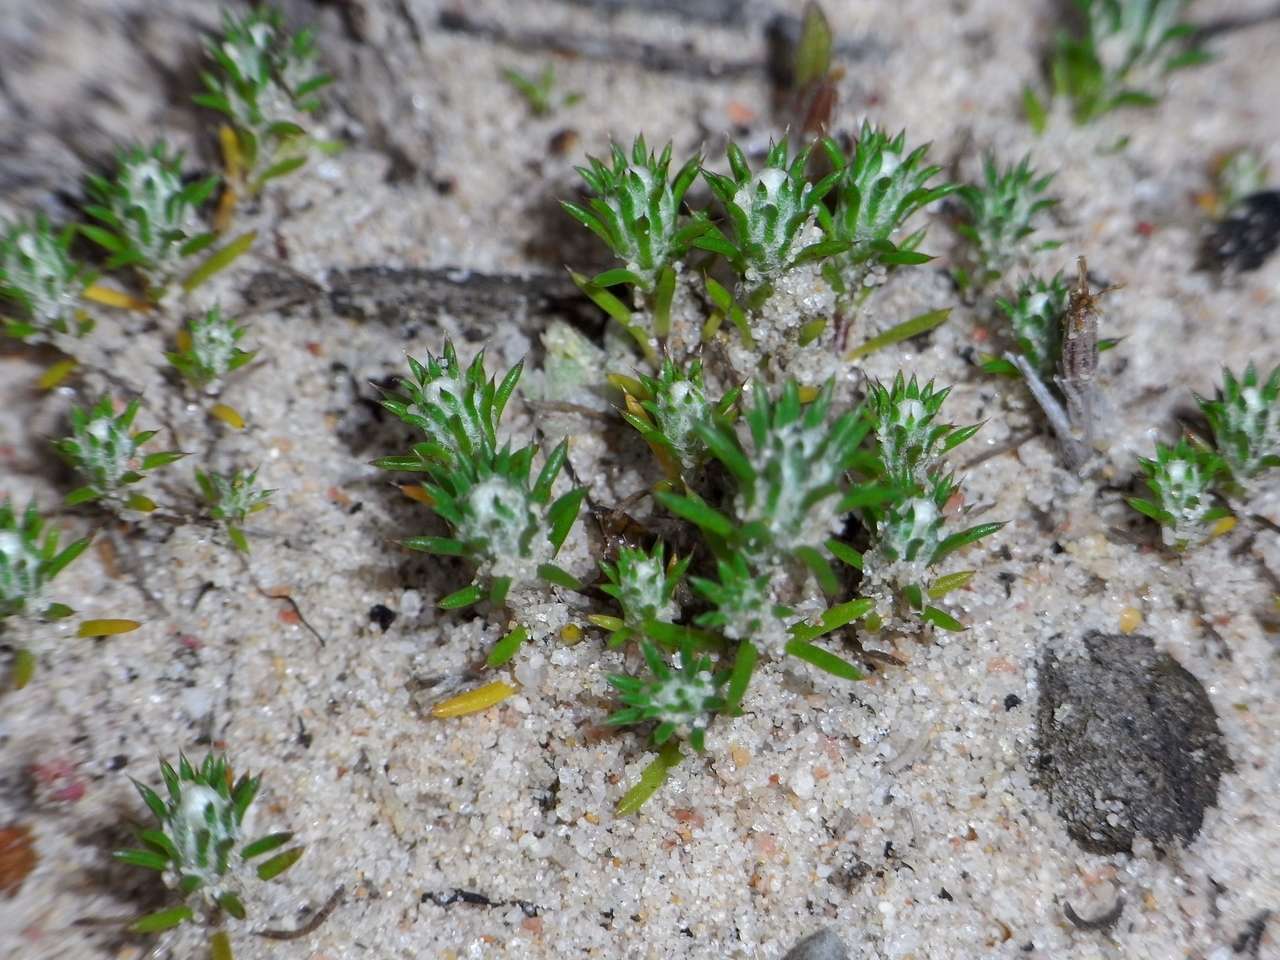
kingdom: Plantae
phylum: Tracheophyta
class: Magnoliopsida
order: Asterales
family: Asteraceae
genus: Pogonolepis
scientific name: Pogonolepis muelleriana
